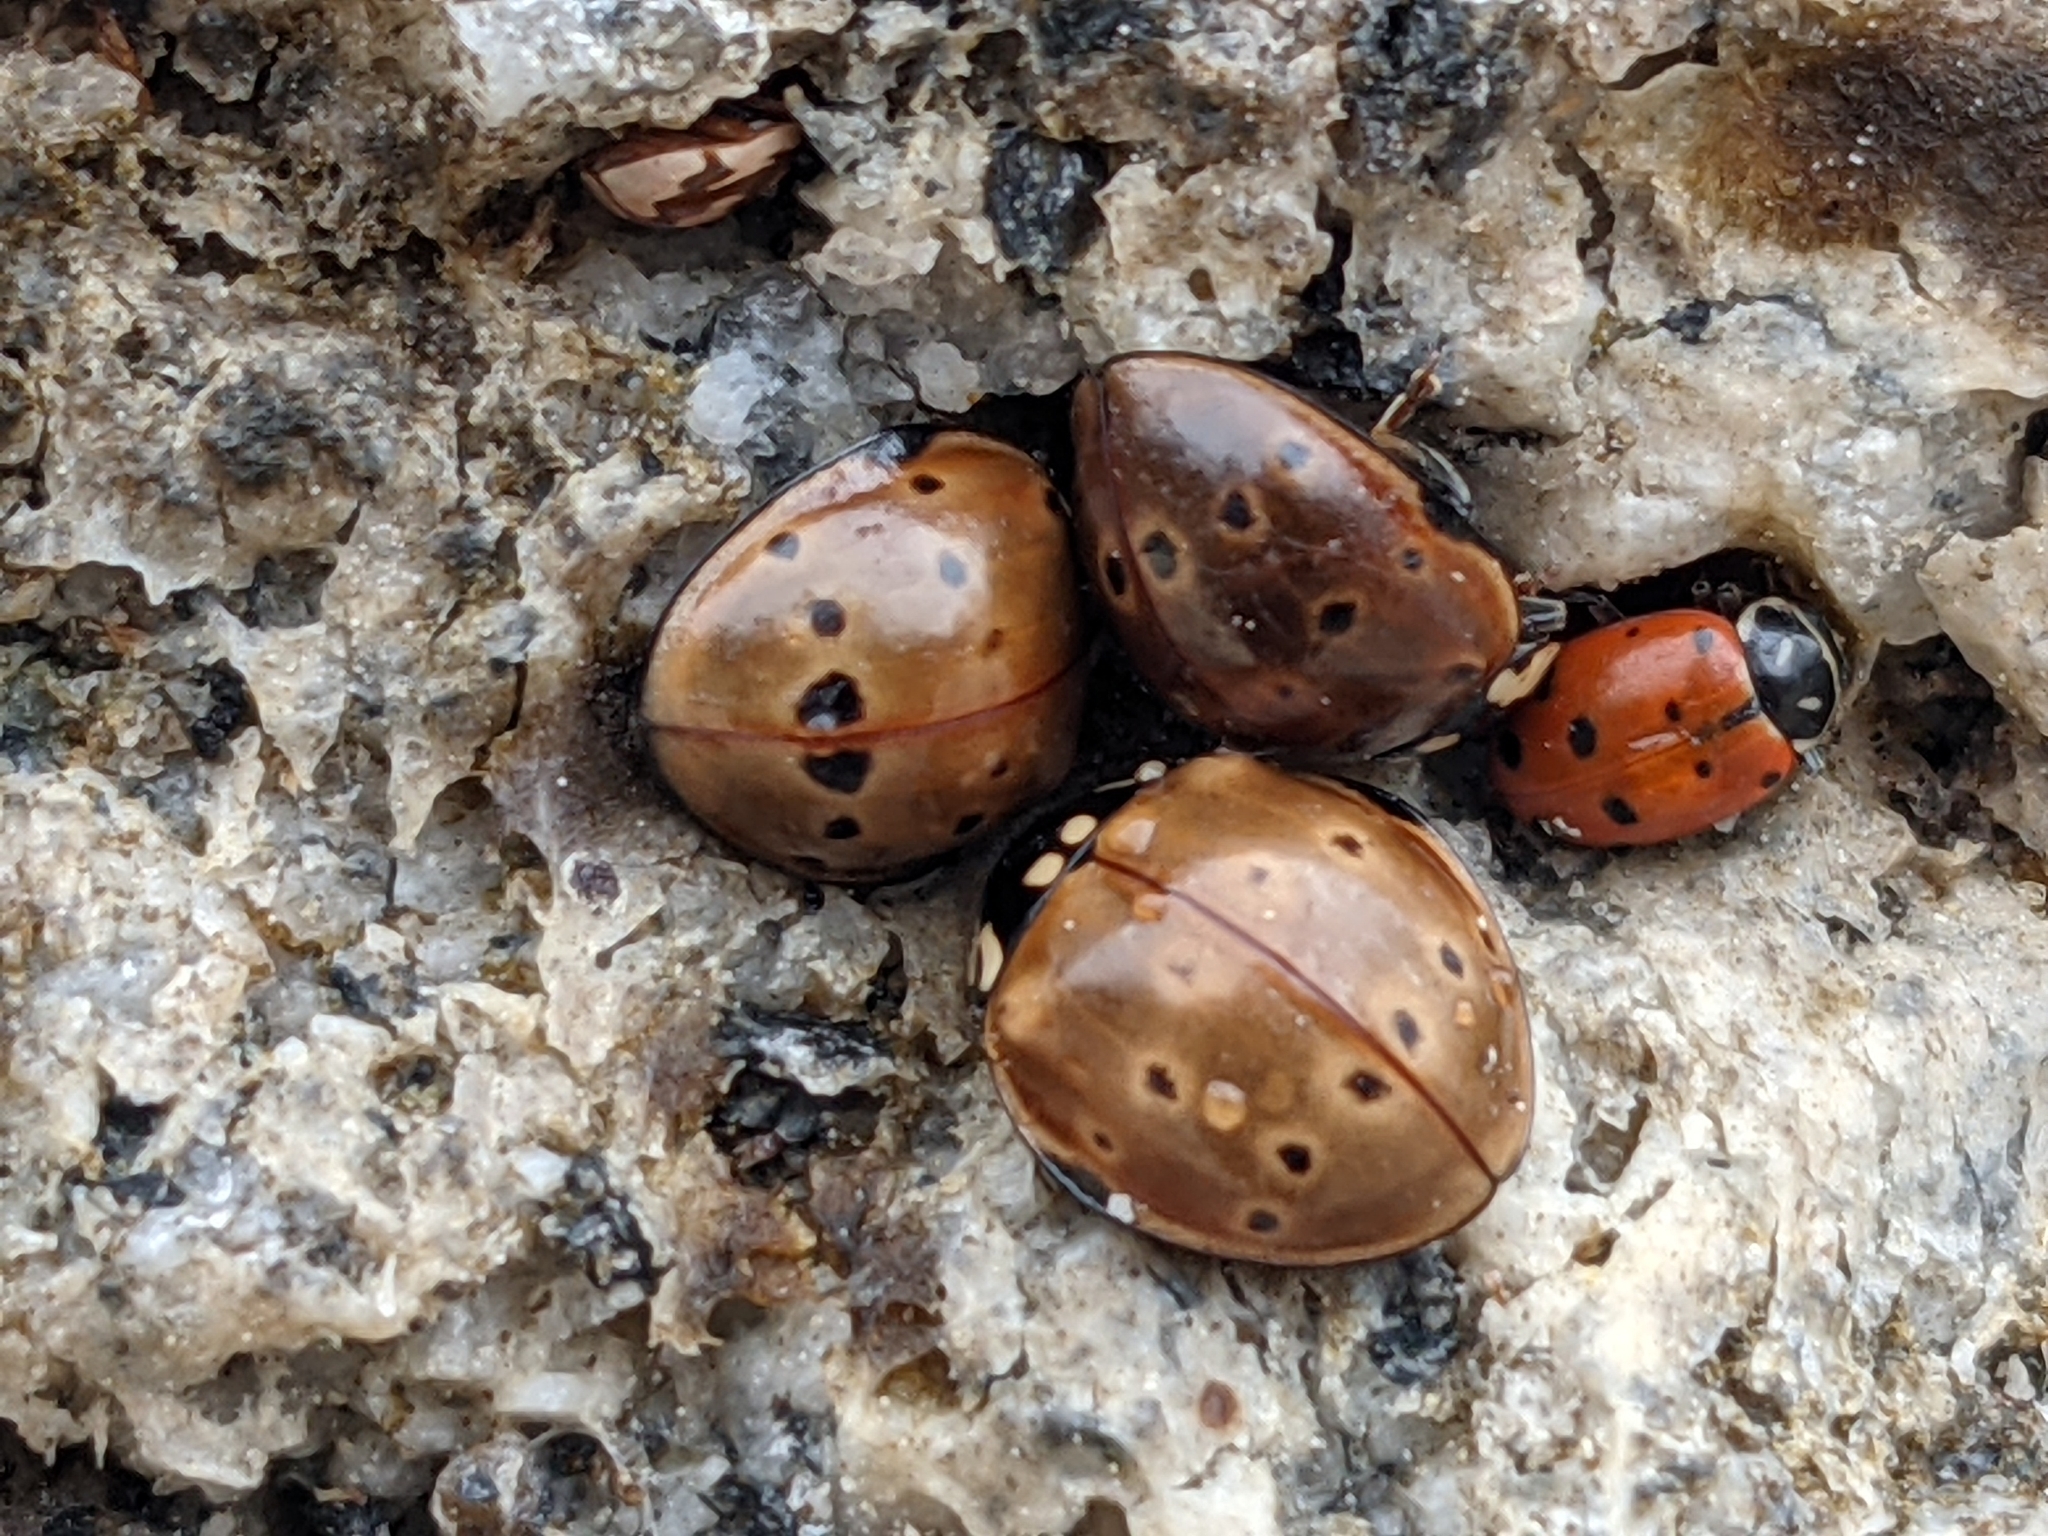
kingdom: Animalia
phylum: Arthropoda
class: Insecta
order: Coleoptera
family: Coccinellidae
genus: Hippodamia
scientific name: Hippodamia convergens
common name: Convergent lady beetle
